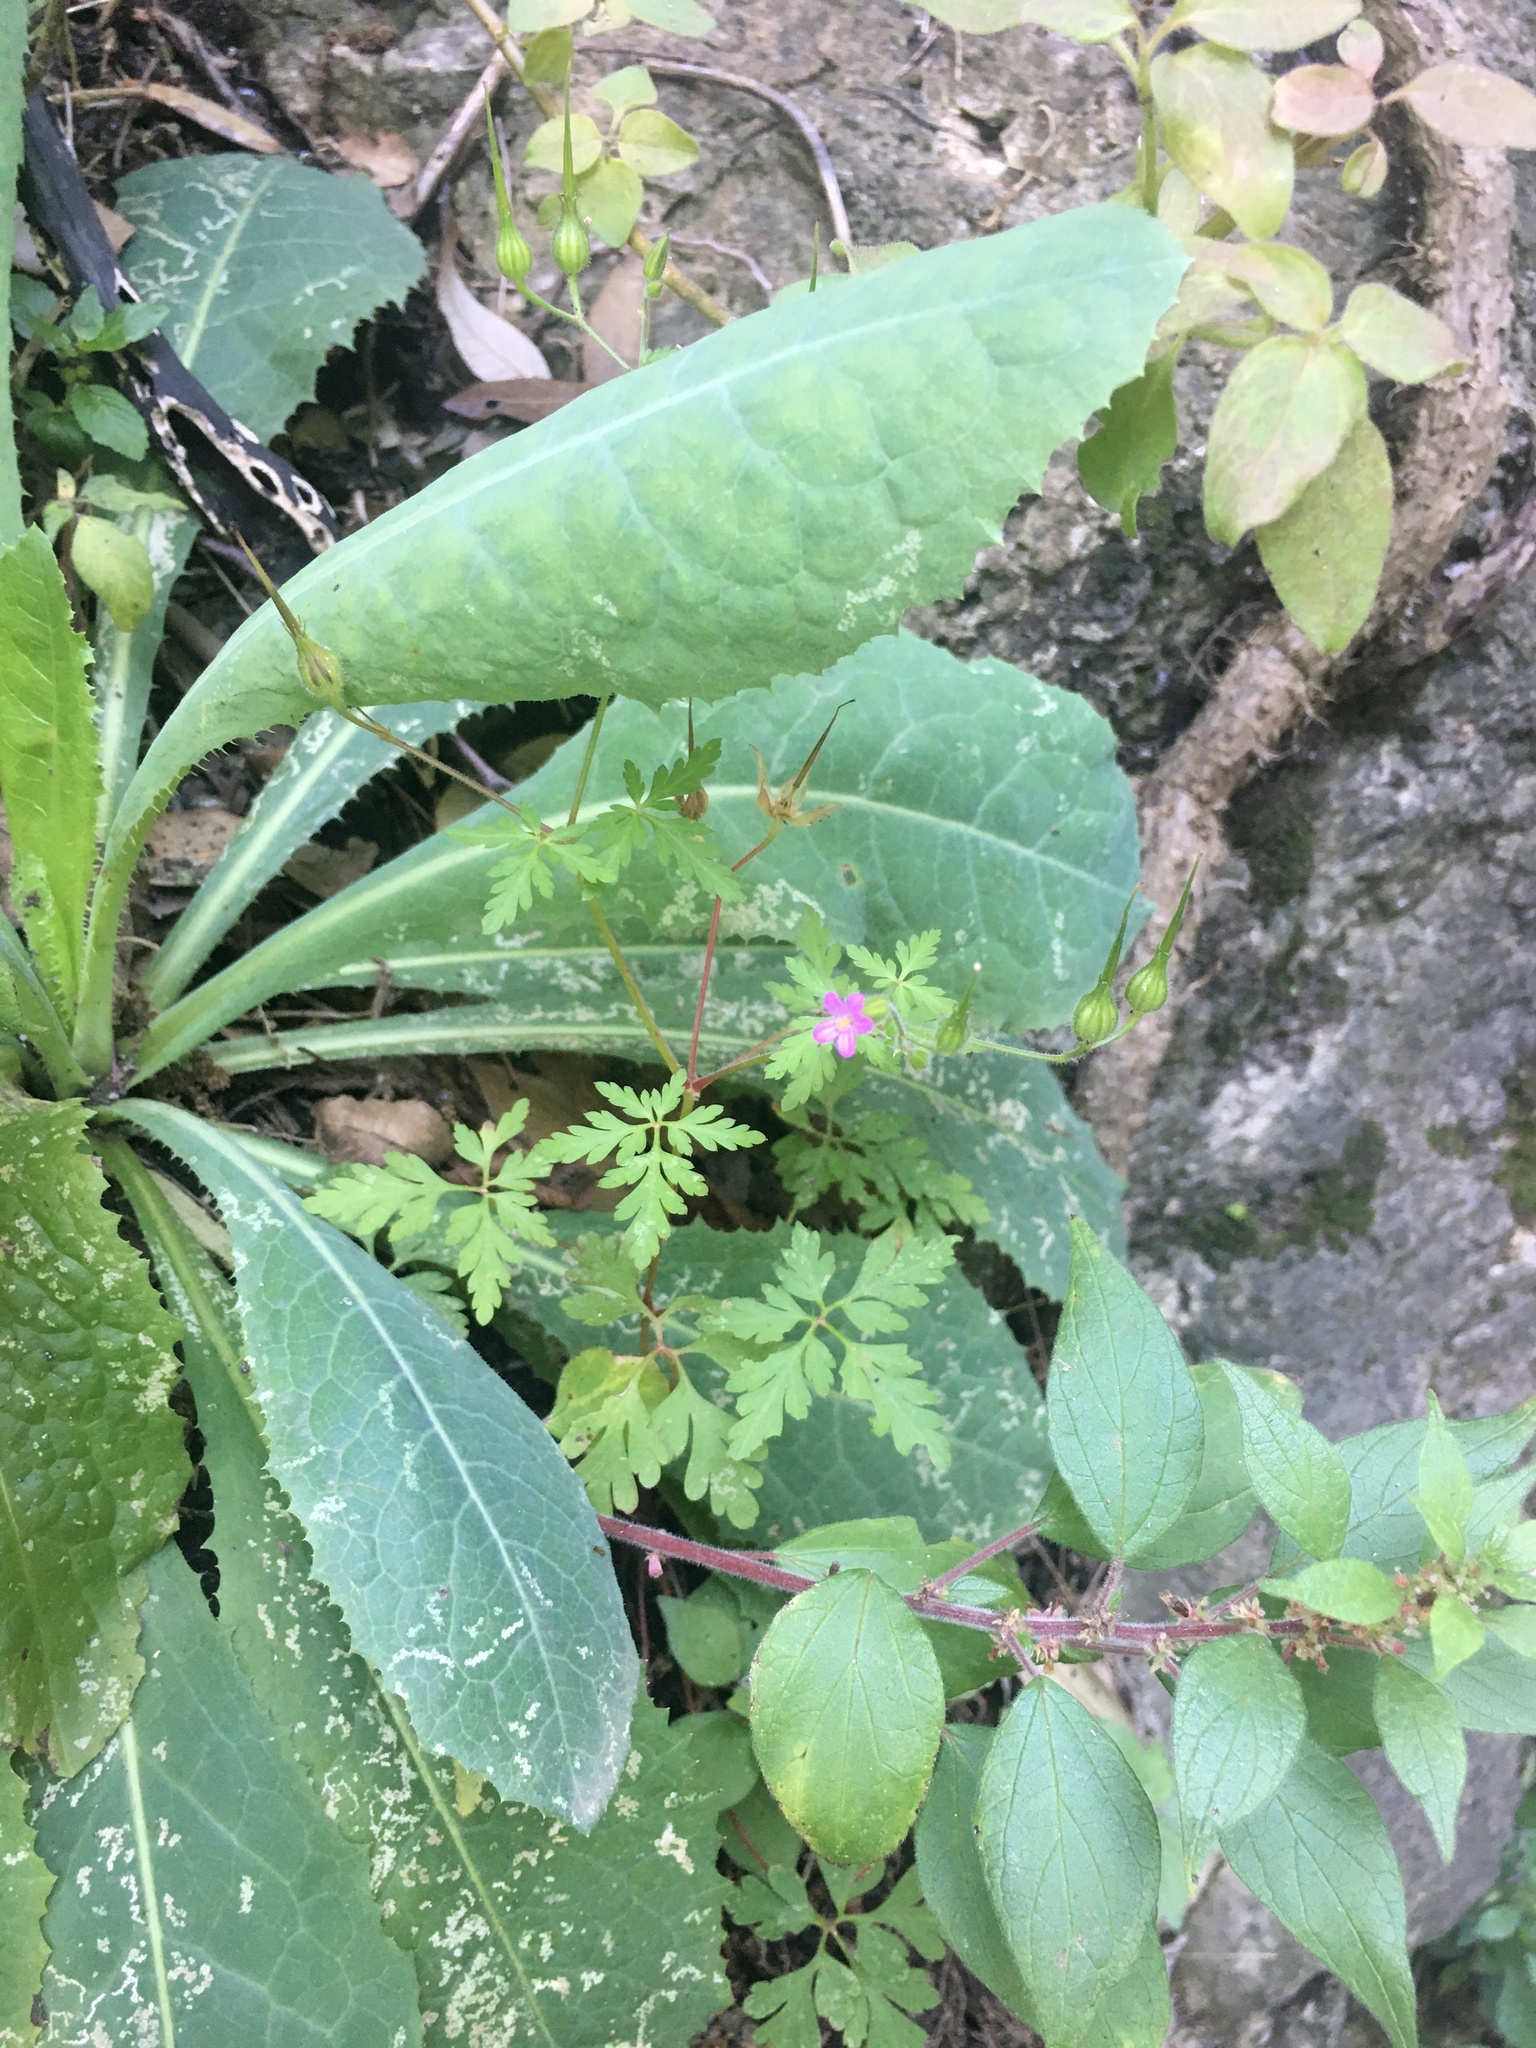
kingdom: Plantae
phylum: Tracheophyta
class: Magnoliopsida
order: Geraniales
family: Geraniaceae
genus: Geranium
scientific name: Geranium robertianum
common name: Herb-robert
